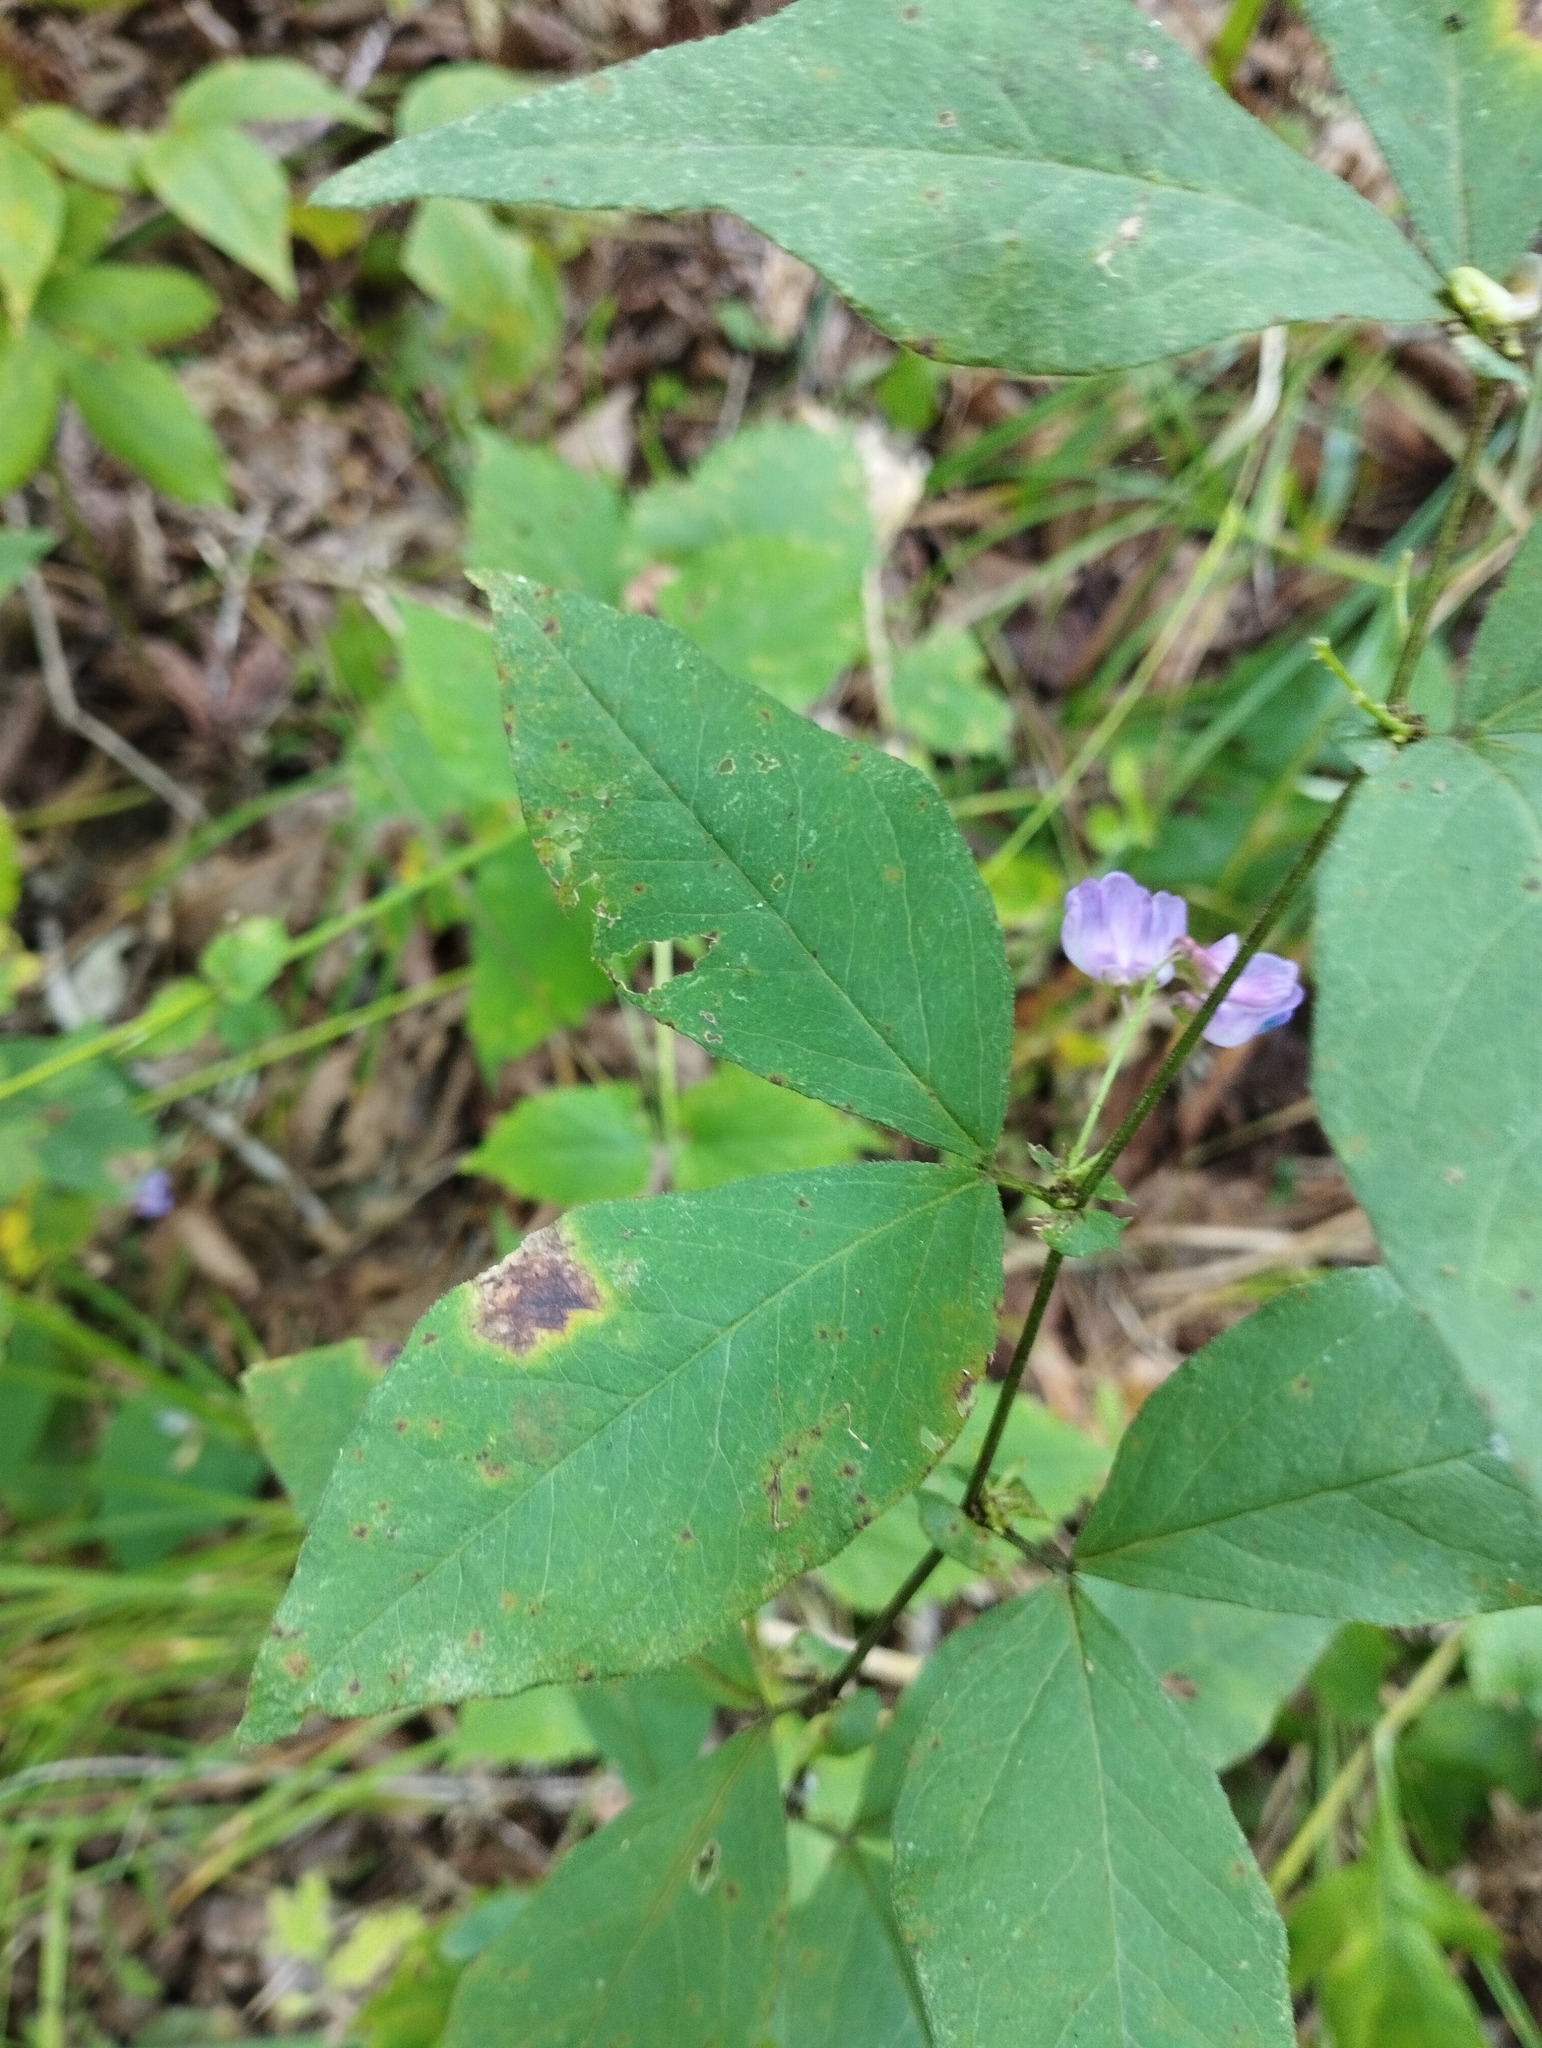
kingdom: Plantae
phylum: Tracheophyta
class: Magnoliopsida
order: Fabales
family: Fabaceae
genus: Vicia
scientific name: Vicia unijuga
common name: Two-leaf vetch
